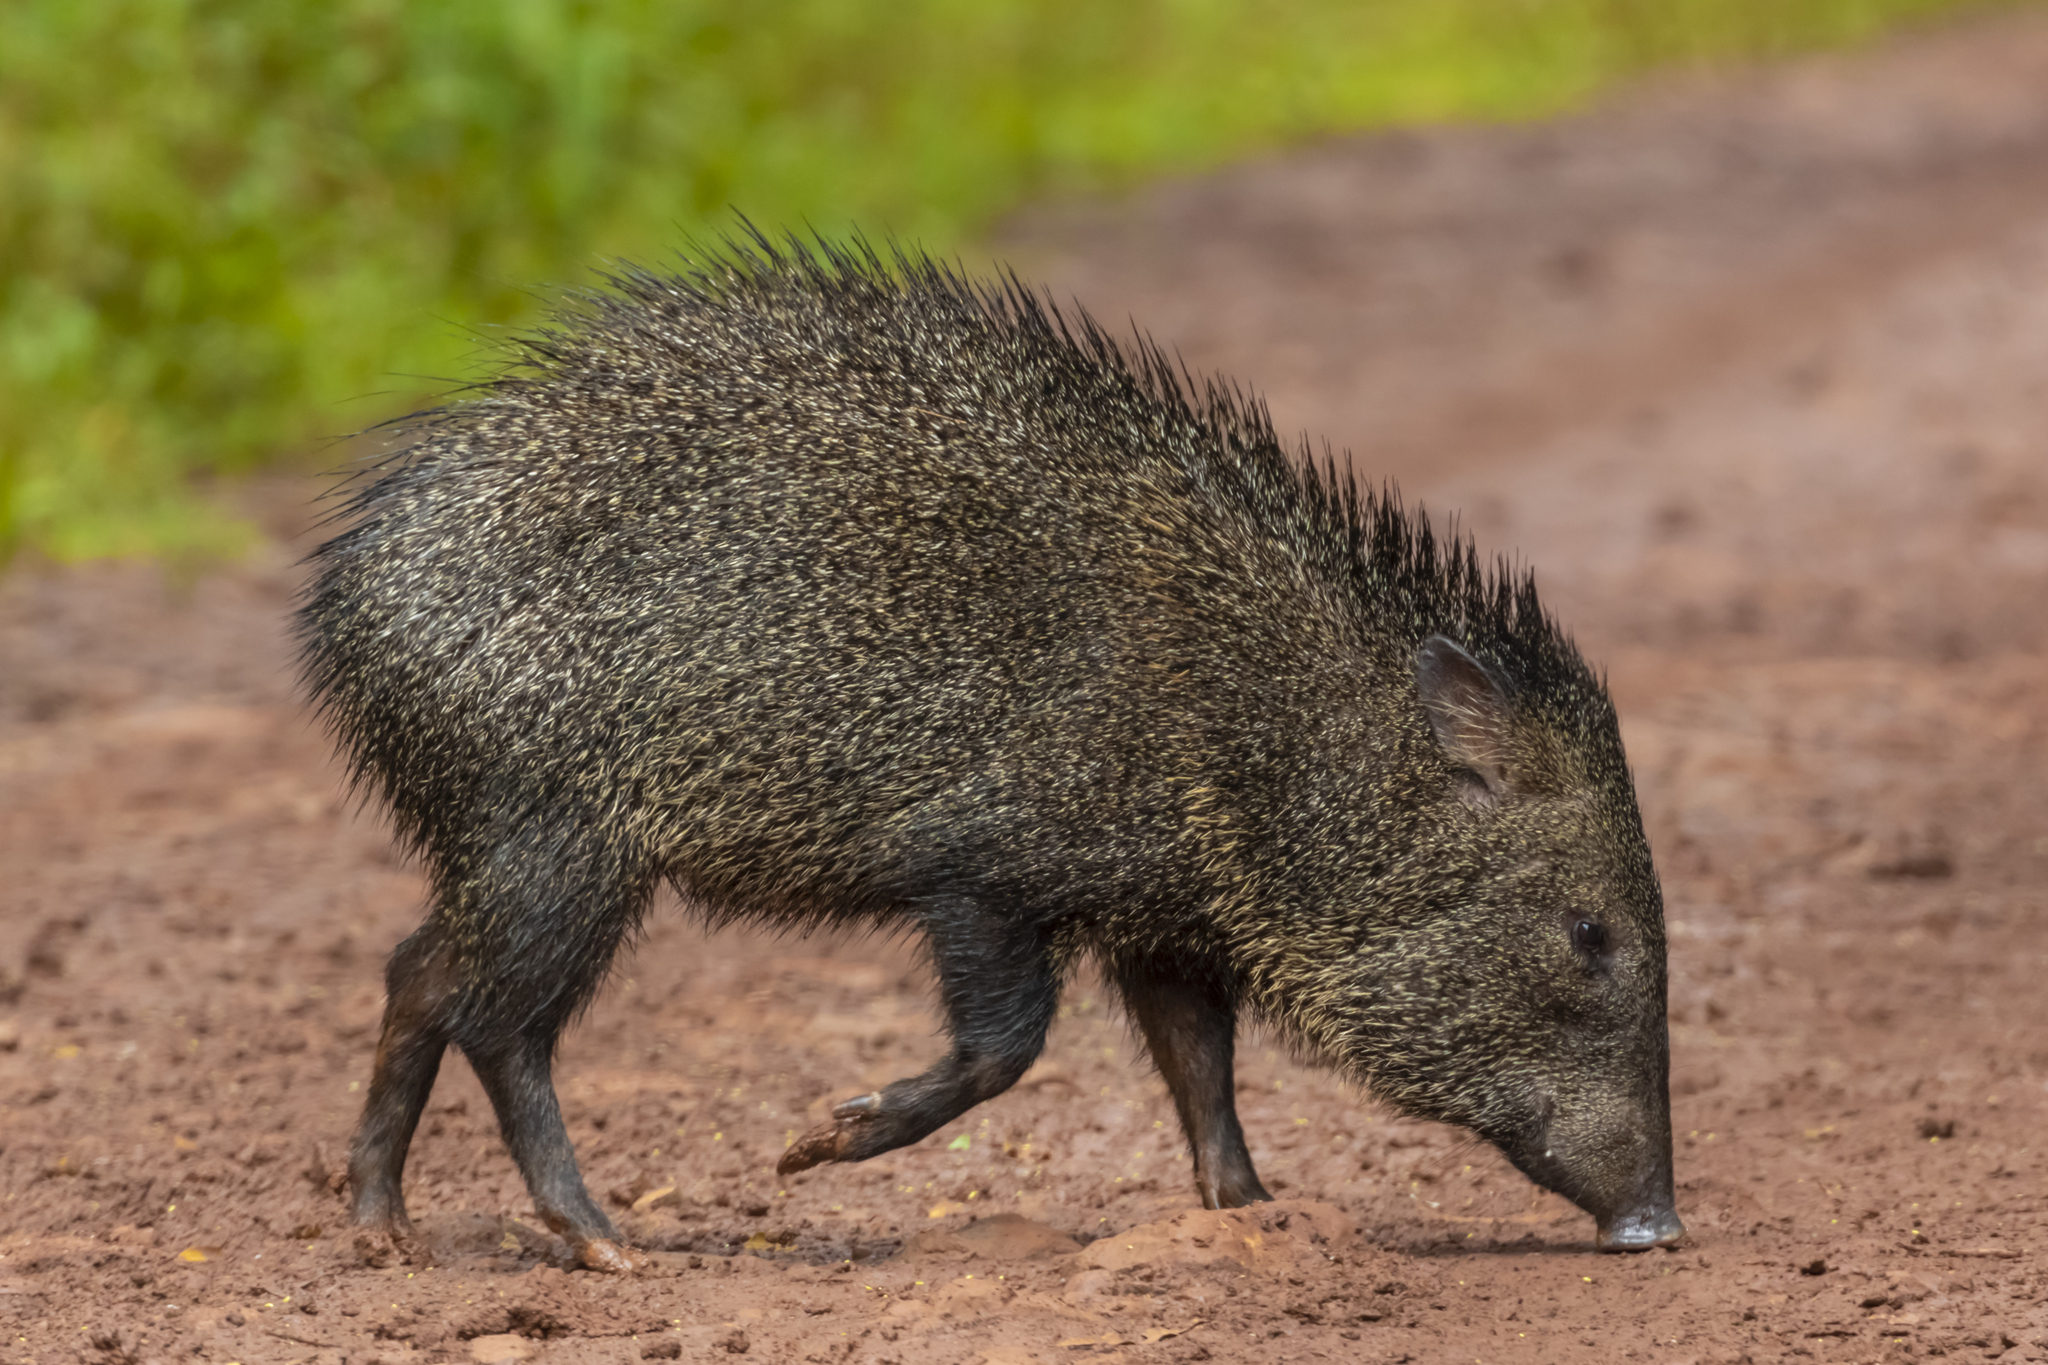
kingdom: Animalia
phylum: Chordata
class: Mammalia
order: Artiodactyla
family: Tayassuidae
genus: Pecari
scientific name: Pecari tajacu
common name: Collared peccary
